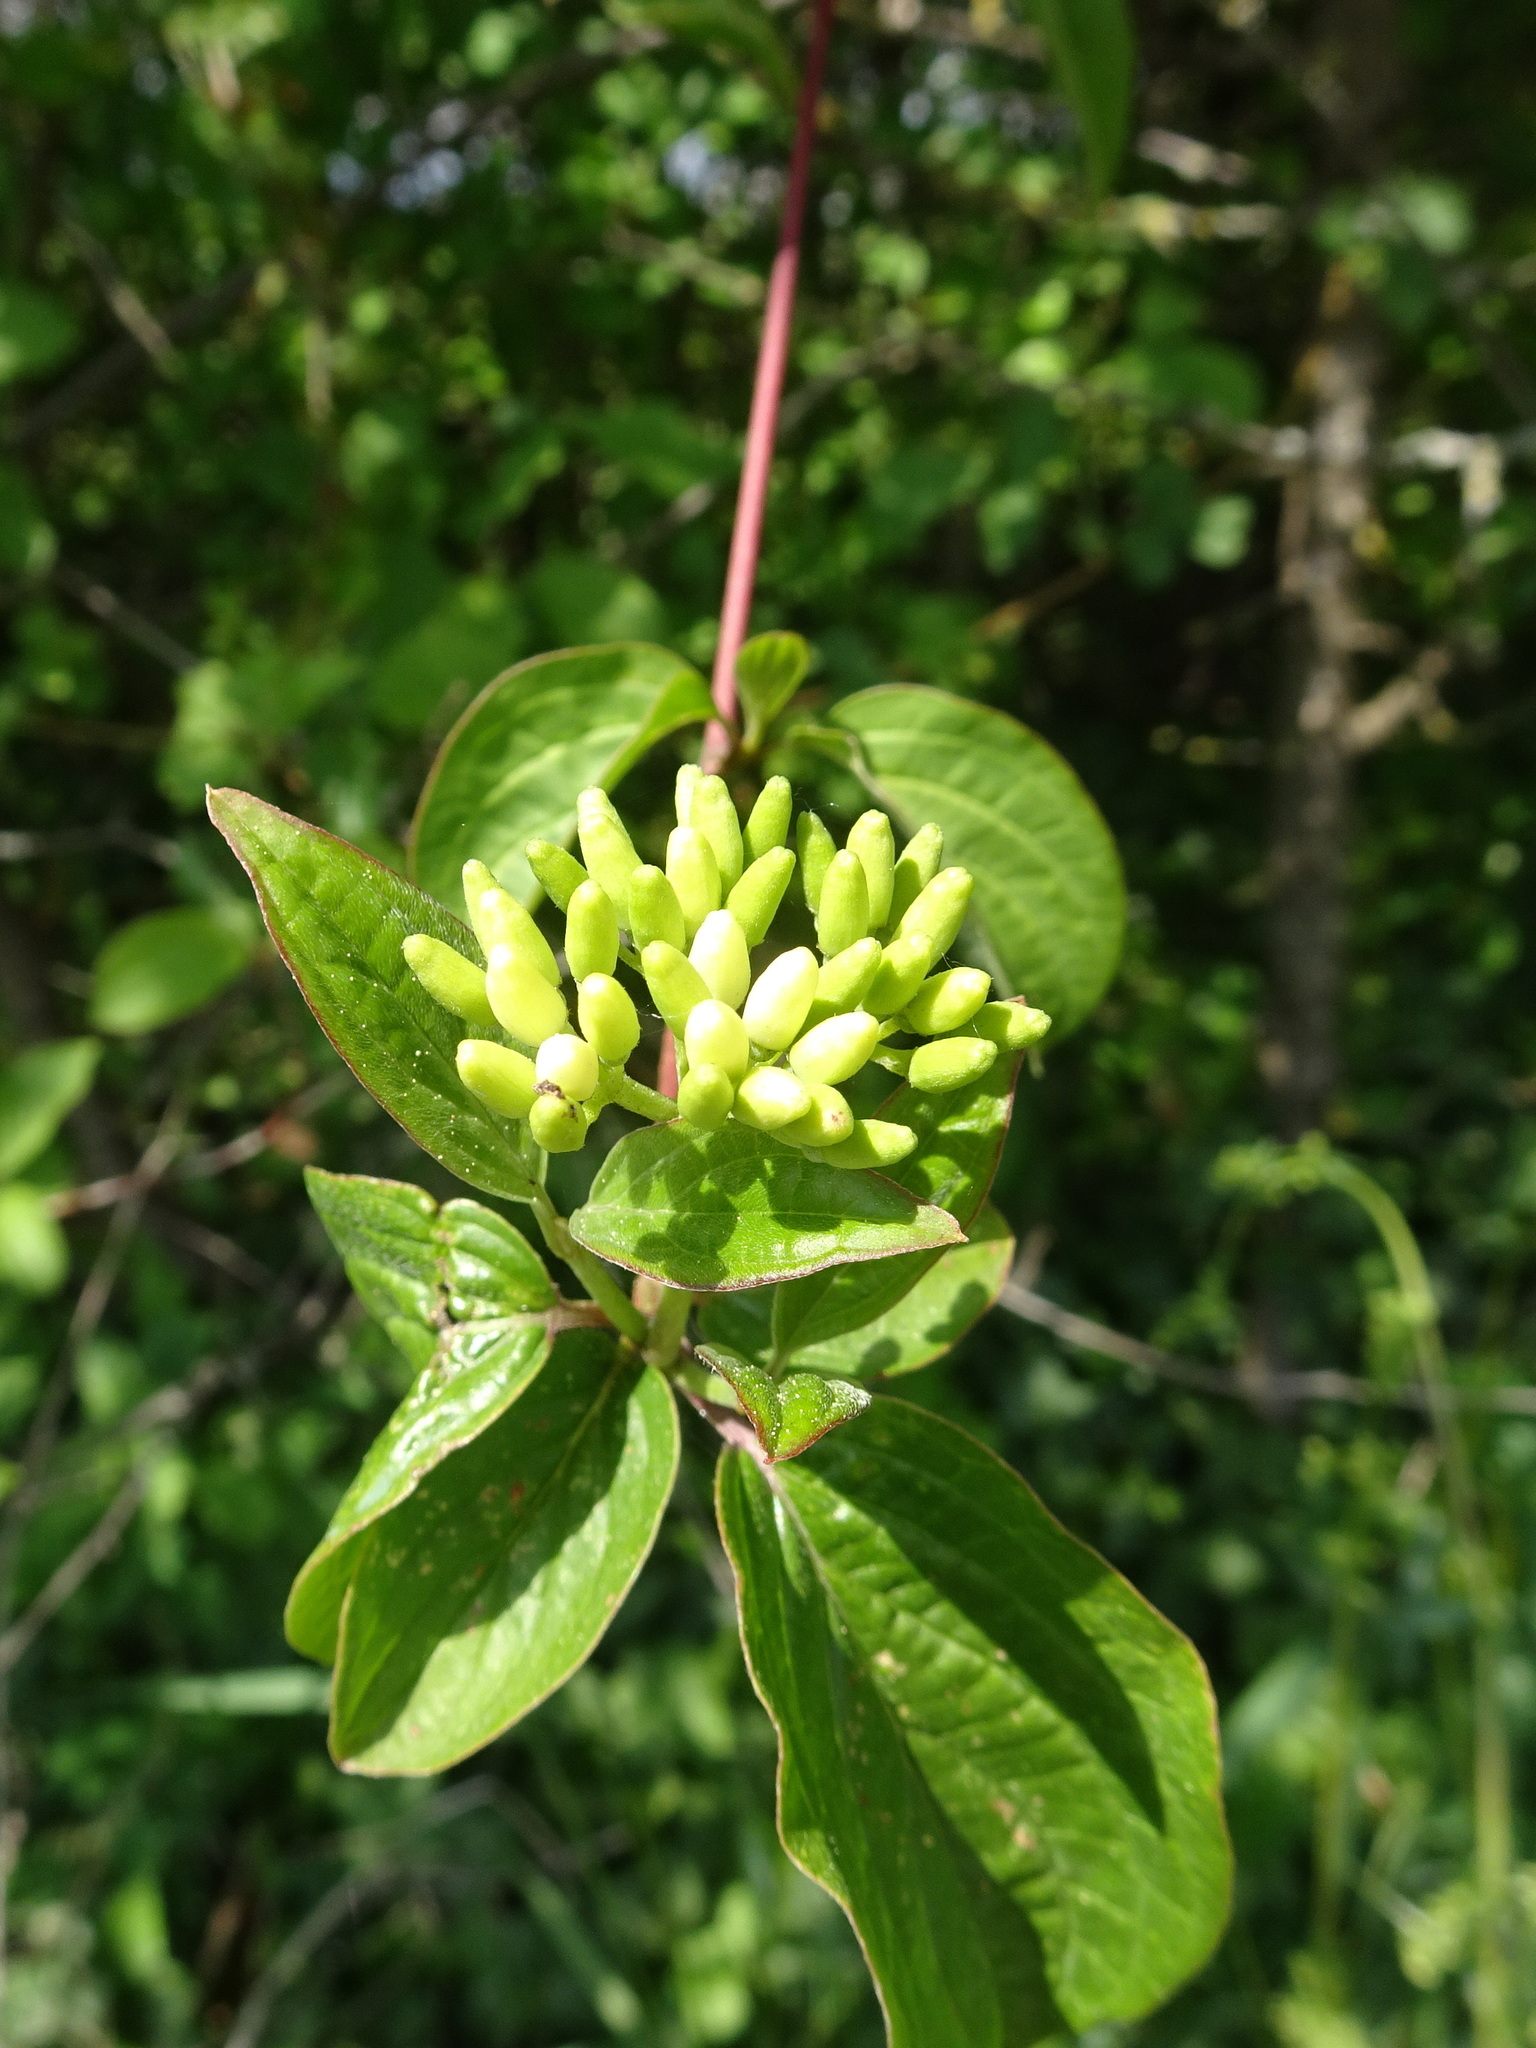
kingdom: Plantae
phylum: Tracheophyta
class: Magnoliopsida
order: Cornales
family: Cornaceae
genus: Cornus
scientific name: Cornus sanguinea
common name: Dogwood
